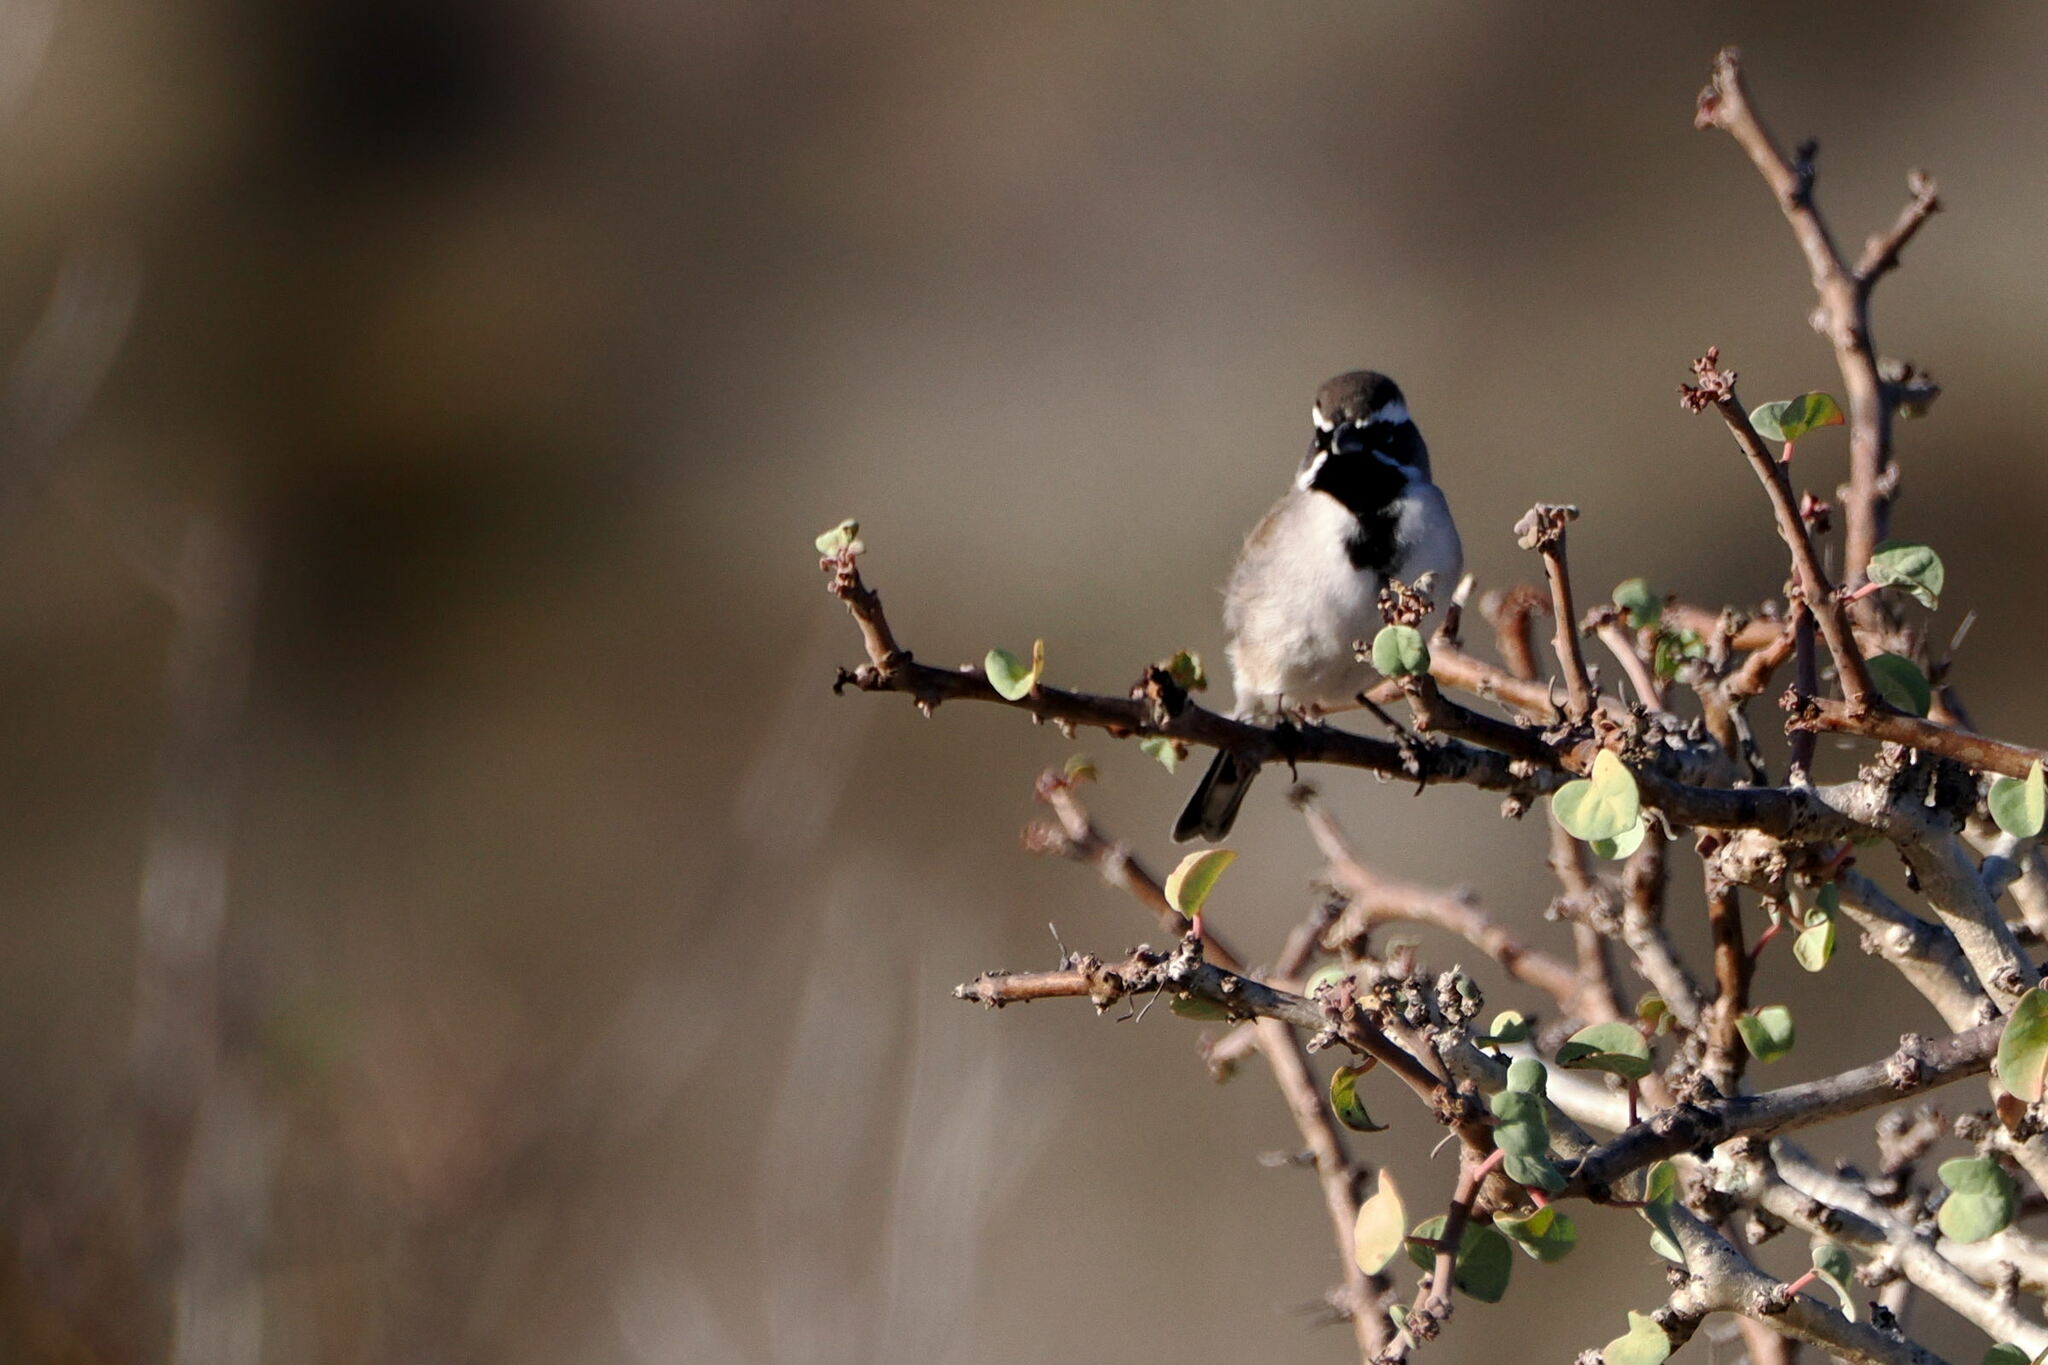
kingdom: Animalia
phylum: Chordata
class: Aves
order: Passeriformes
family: Passerellidae
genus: Amphispiza
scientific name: Amphispiza bilineata
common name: Black-throated sparrow
